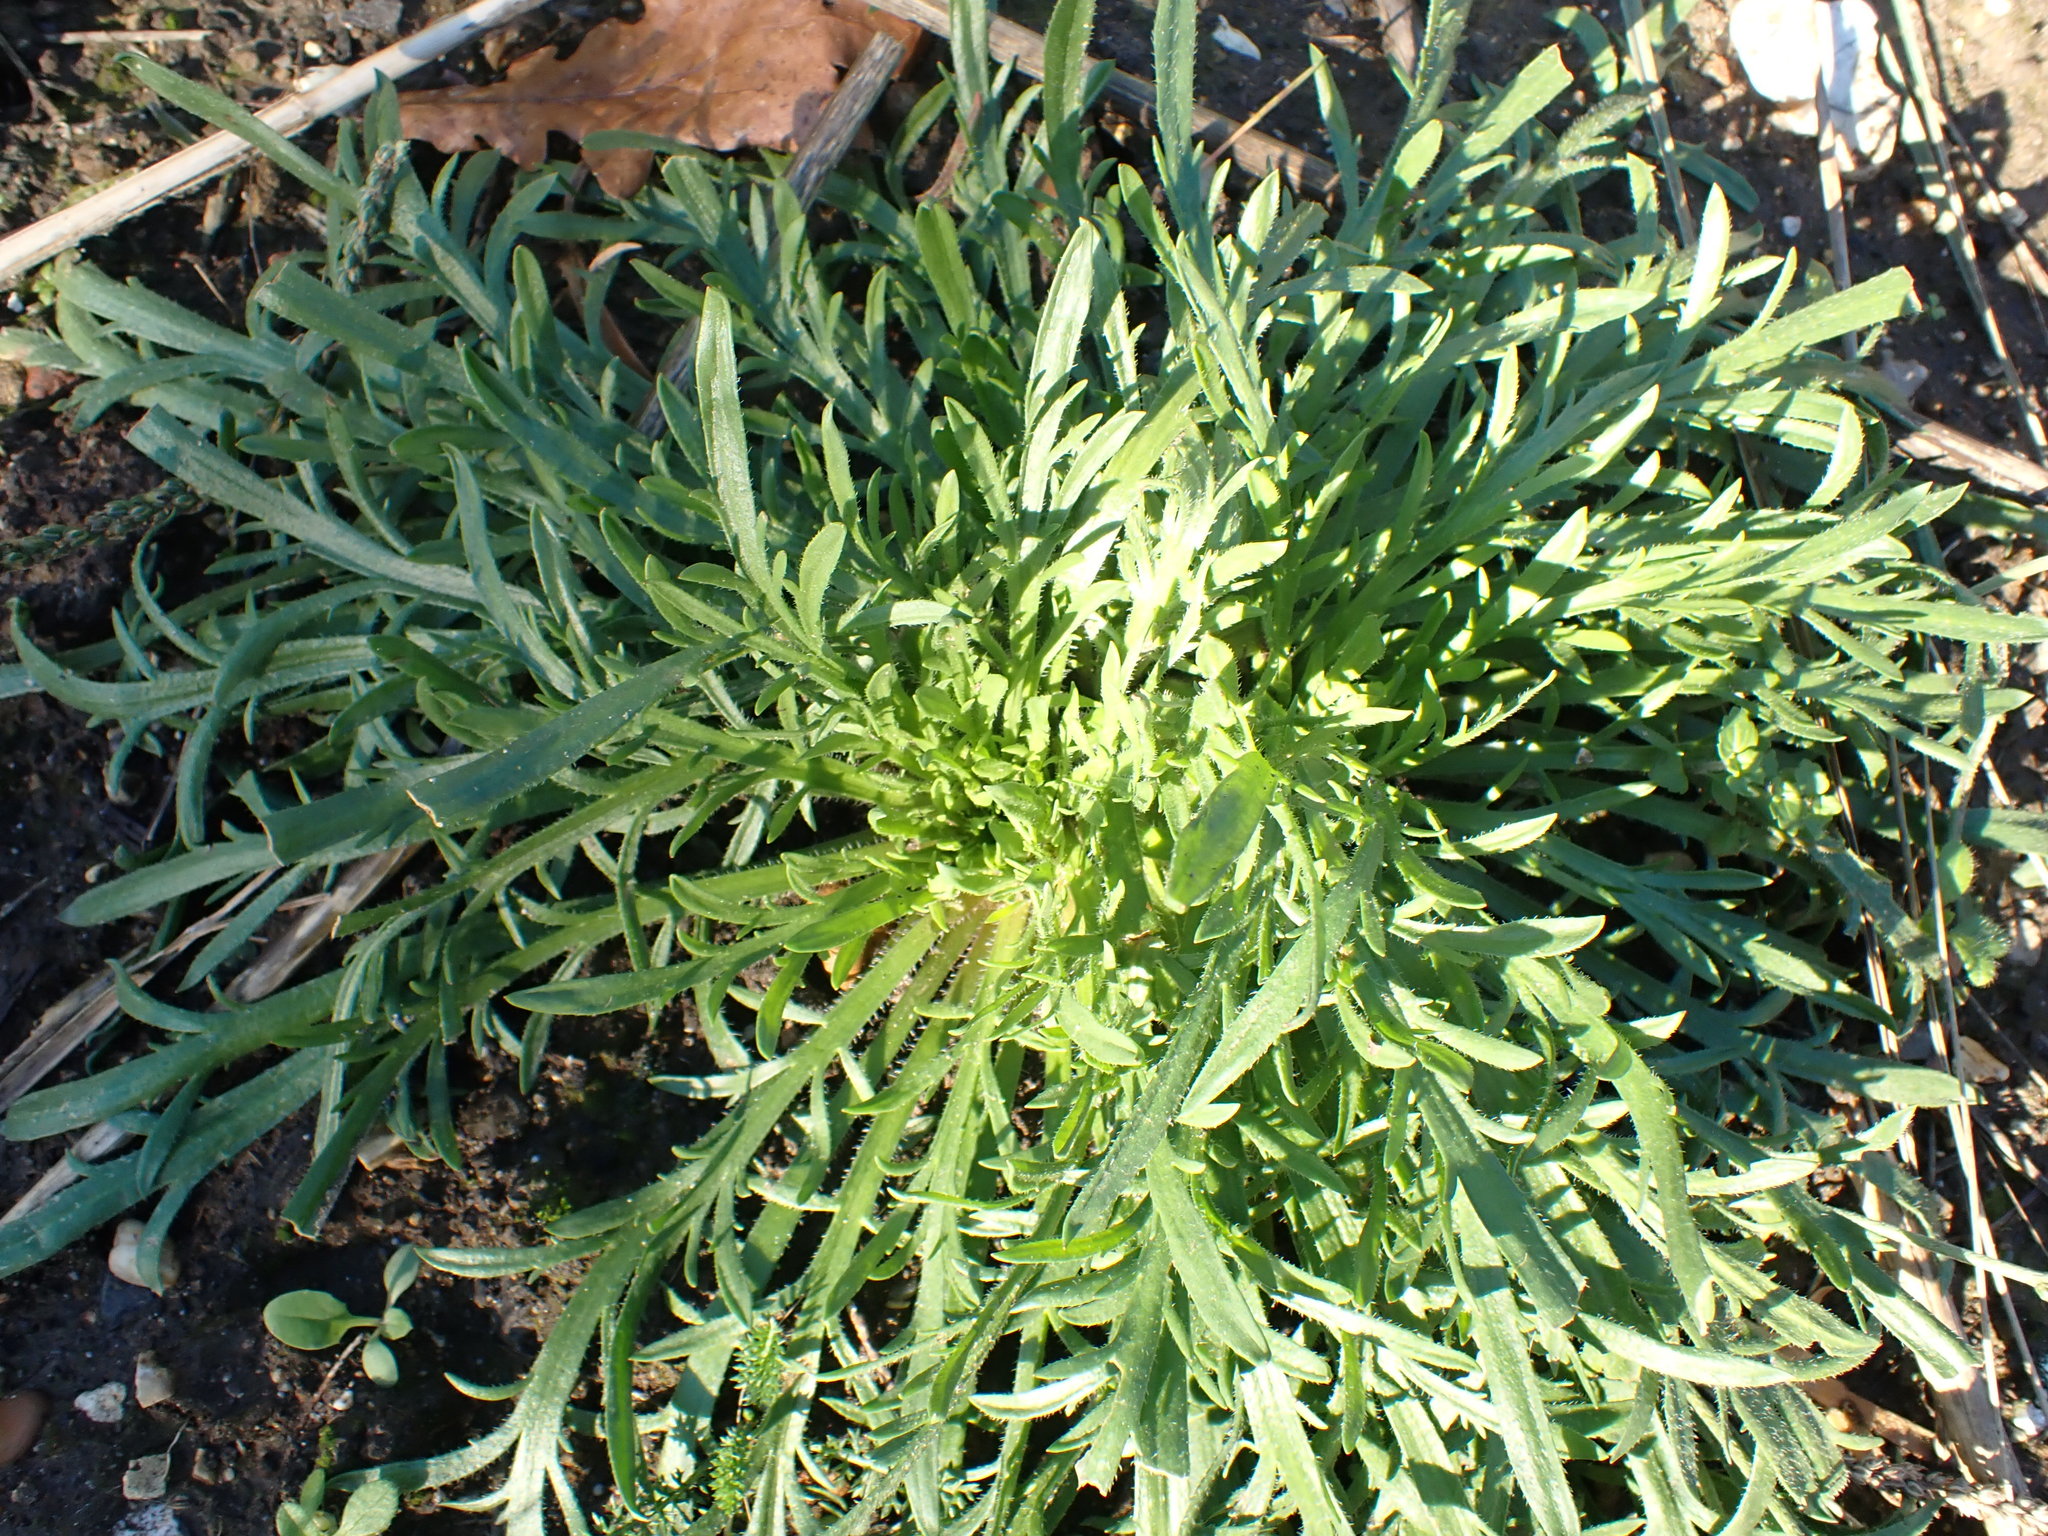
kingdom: Plantae
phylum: Tracheophyta
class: Magnoliopsida
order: Lamiales
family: Plantaginaceae
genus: Plantago
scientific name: Plantago coronopus
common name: Buck's-horn plantain
